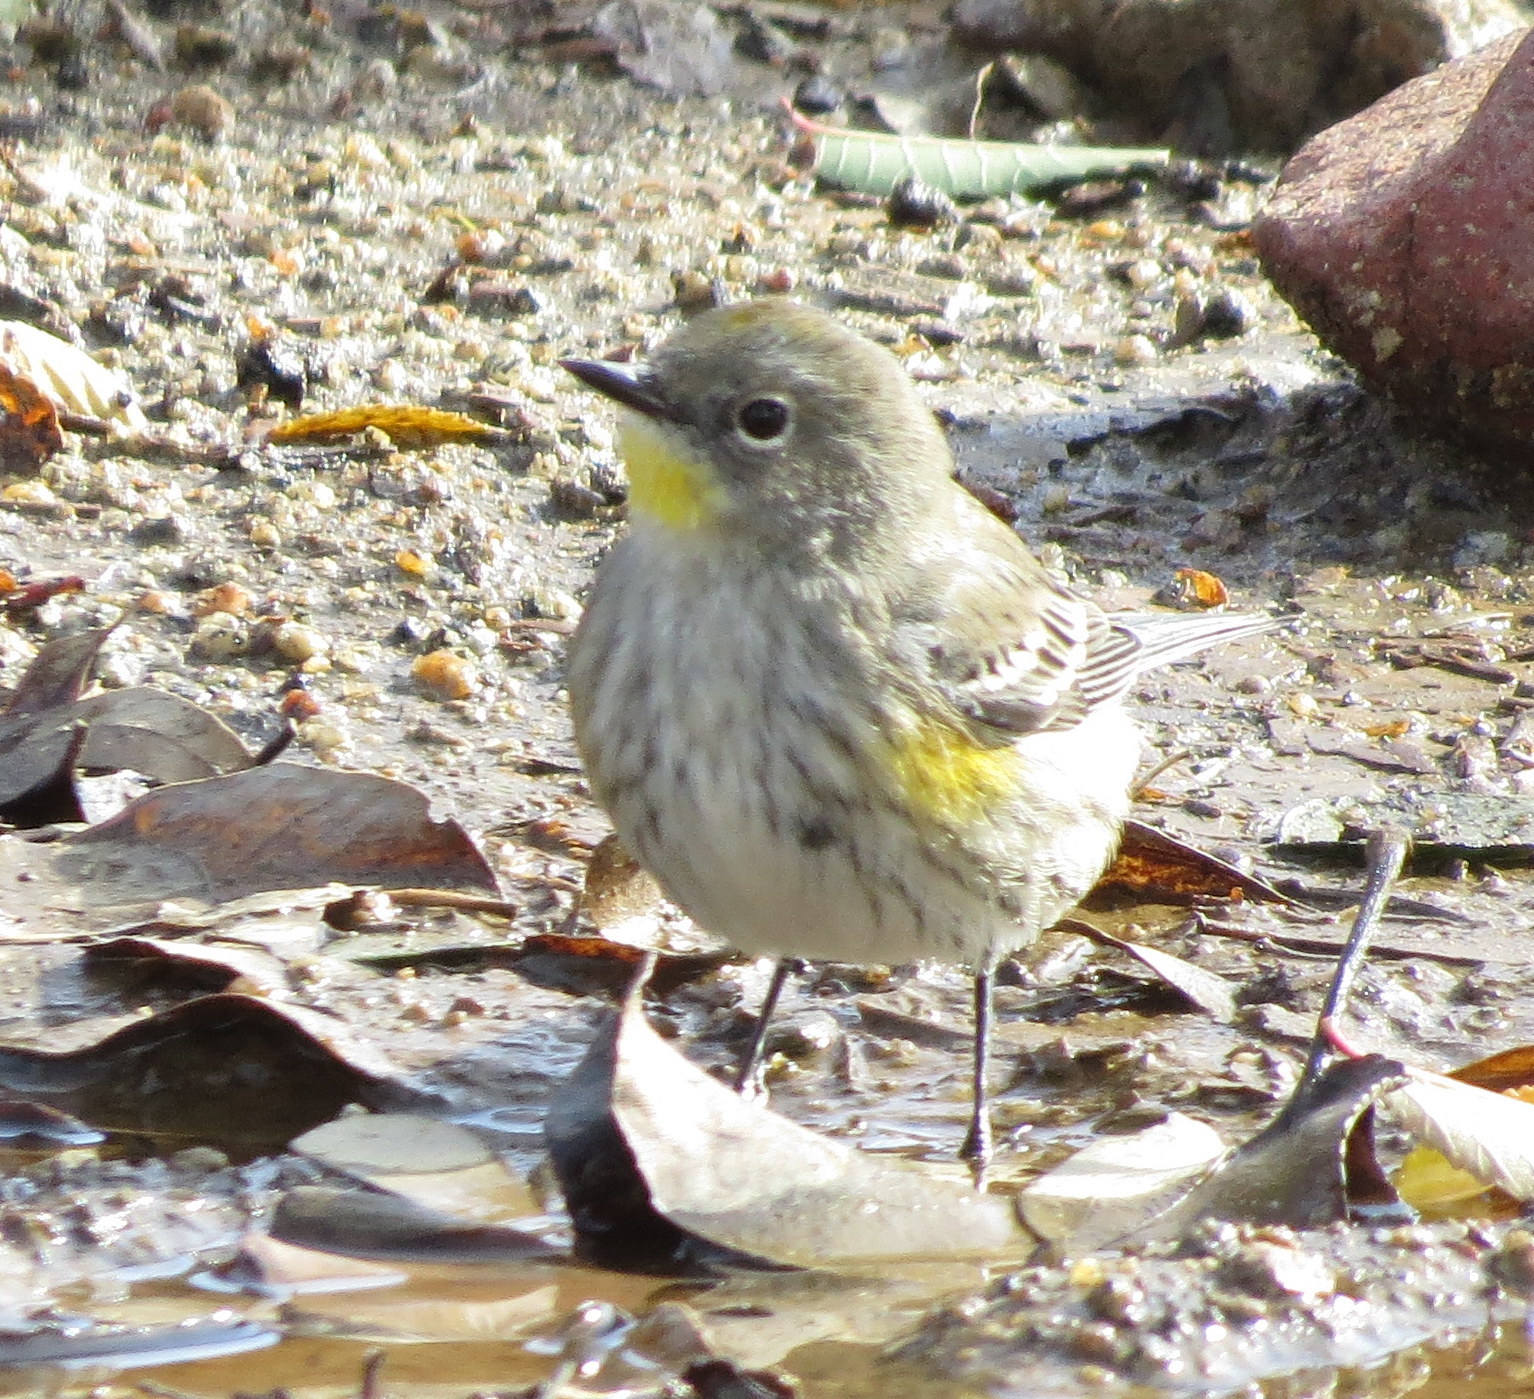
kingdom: Animalia
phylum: Chordata
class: Aves
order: Passeriformes
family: Parulidae
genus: Setophaga
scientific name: Setophaga auduboni
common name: Audubon's warbler
